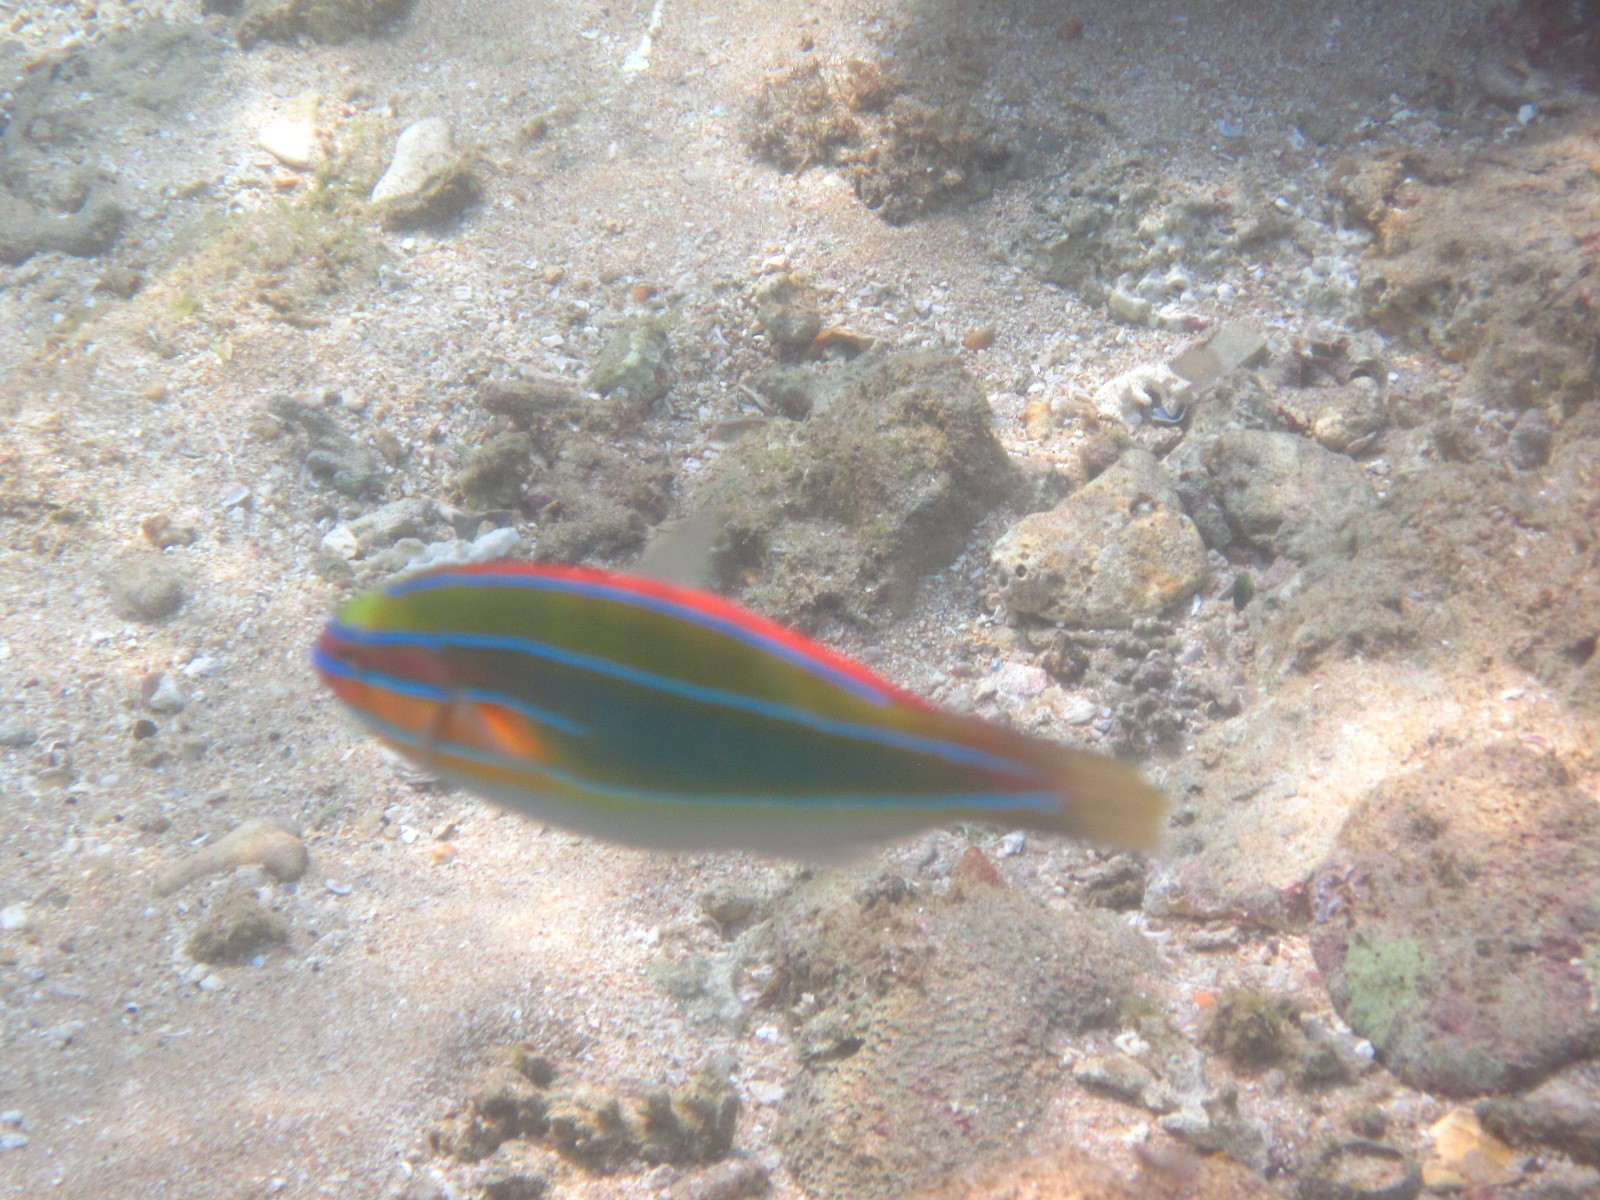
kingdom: Animalia
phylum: Chordata
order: Perciformes
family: Labridae
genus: Stethojulis
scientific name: Stethojulis trilineata
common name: Blue-ribbon wrasse
